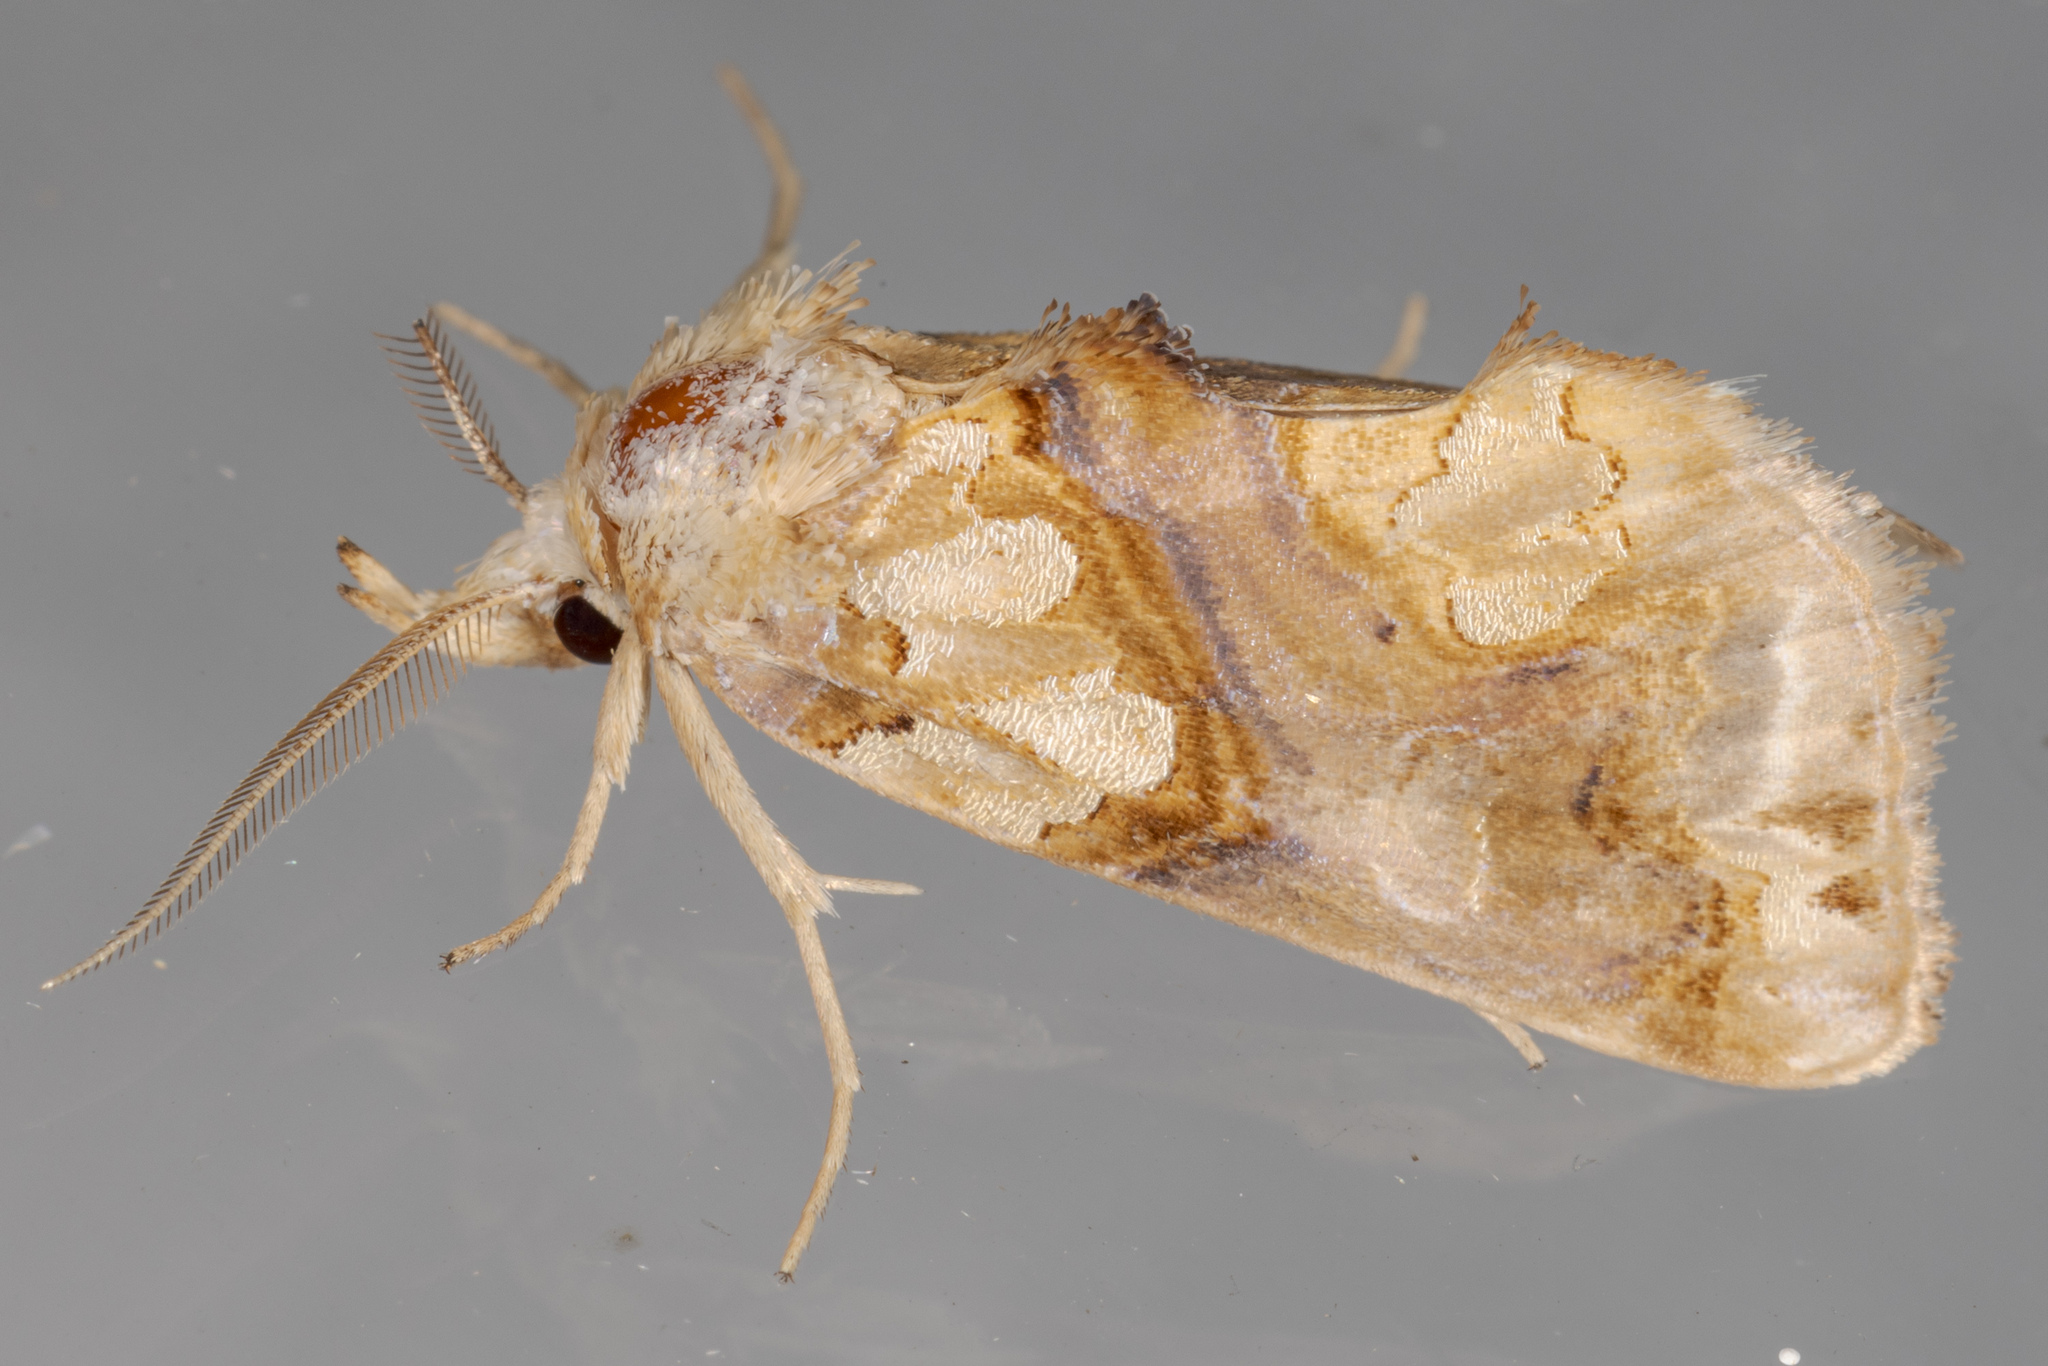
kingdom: Animalia
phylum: Arthropoda
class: Insecta
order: Lepidoptera
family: Erebidae
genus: Plusiodonta
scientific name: Plusiodonta compressipalpis
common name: Moonseed moth
